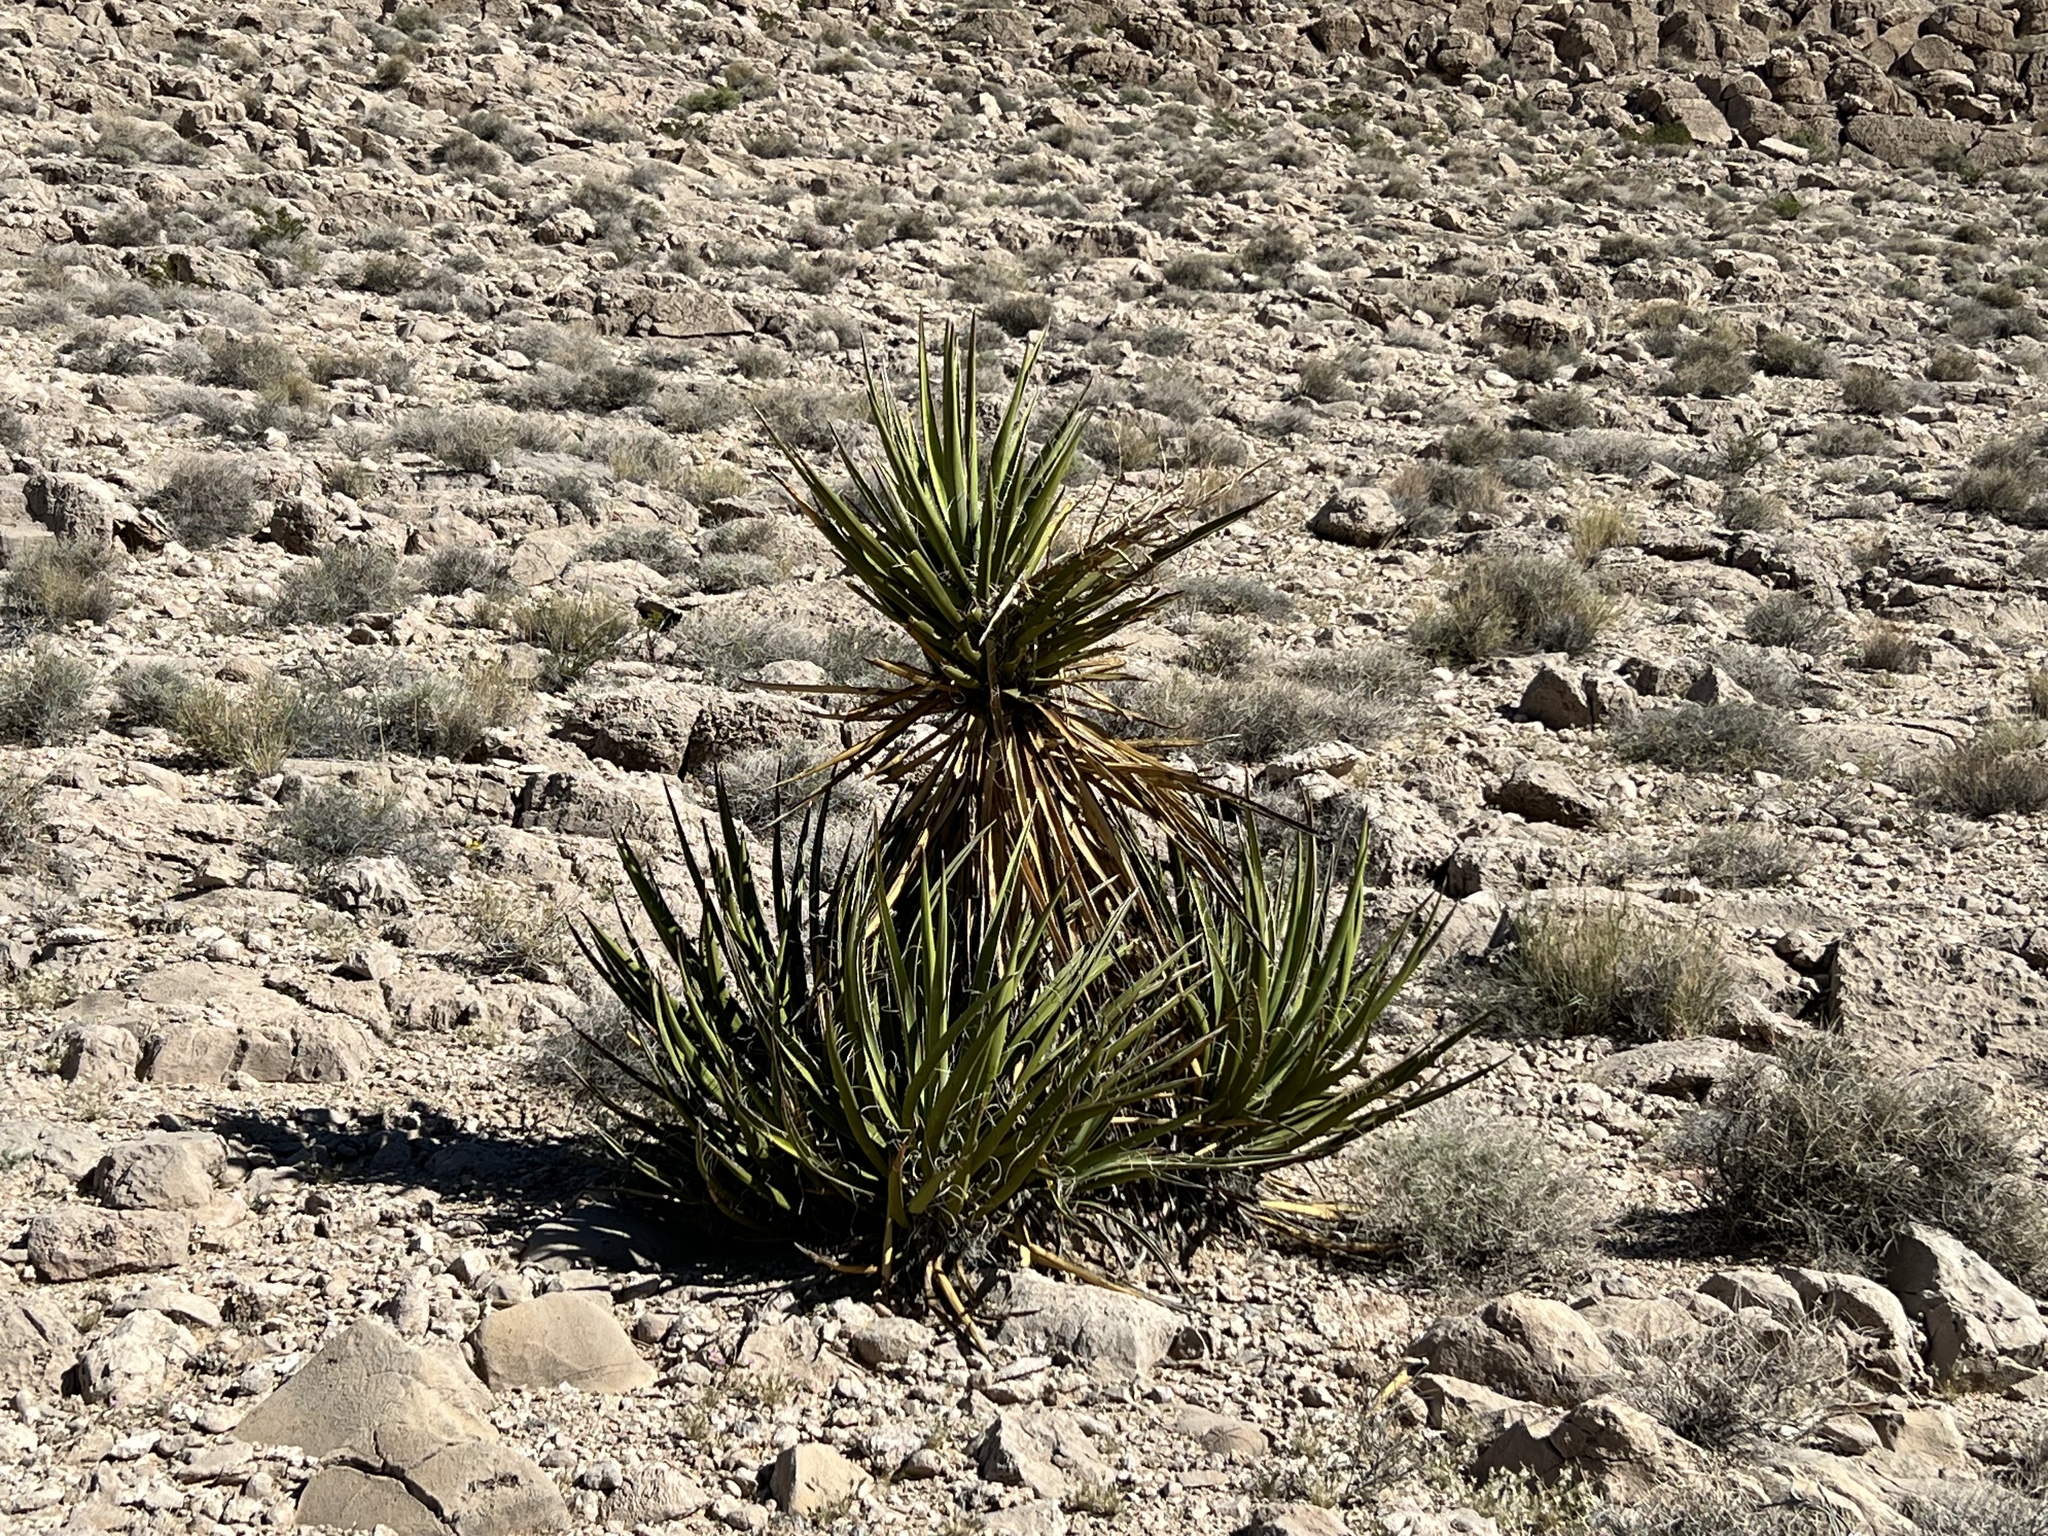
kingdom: Plantae
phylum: Tracheophyta
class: Liliopsida
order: Asparagales
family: Asparagaceae
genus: Yucca
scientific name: Yucca schidigera
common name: Mojave yucca
